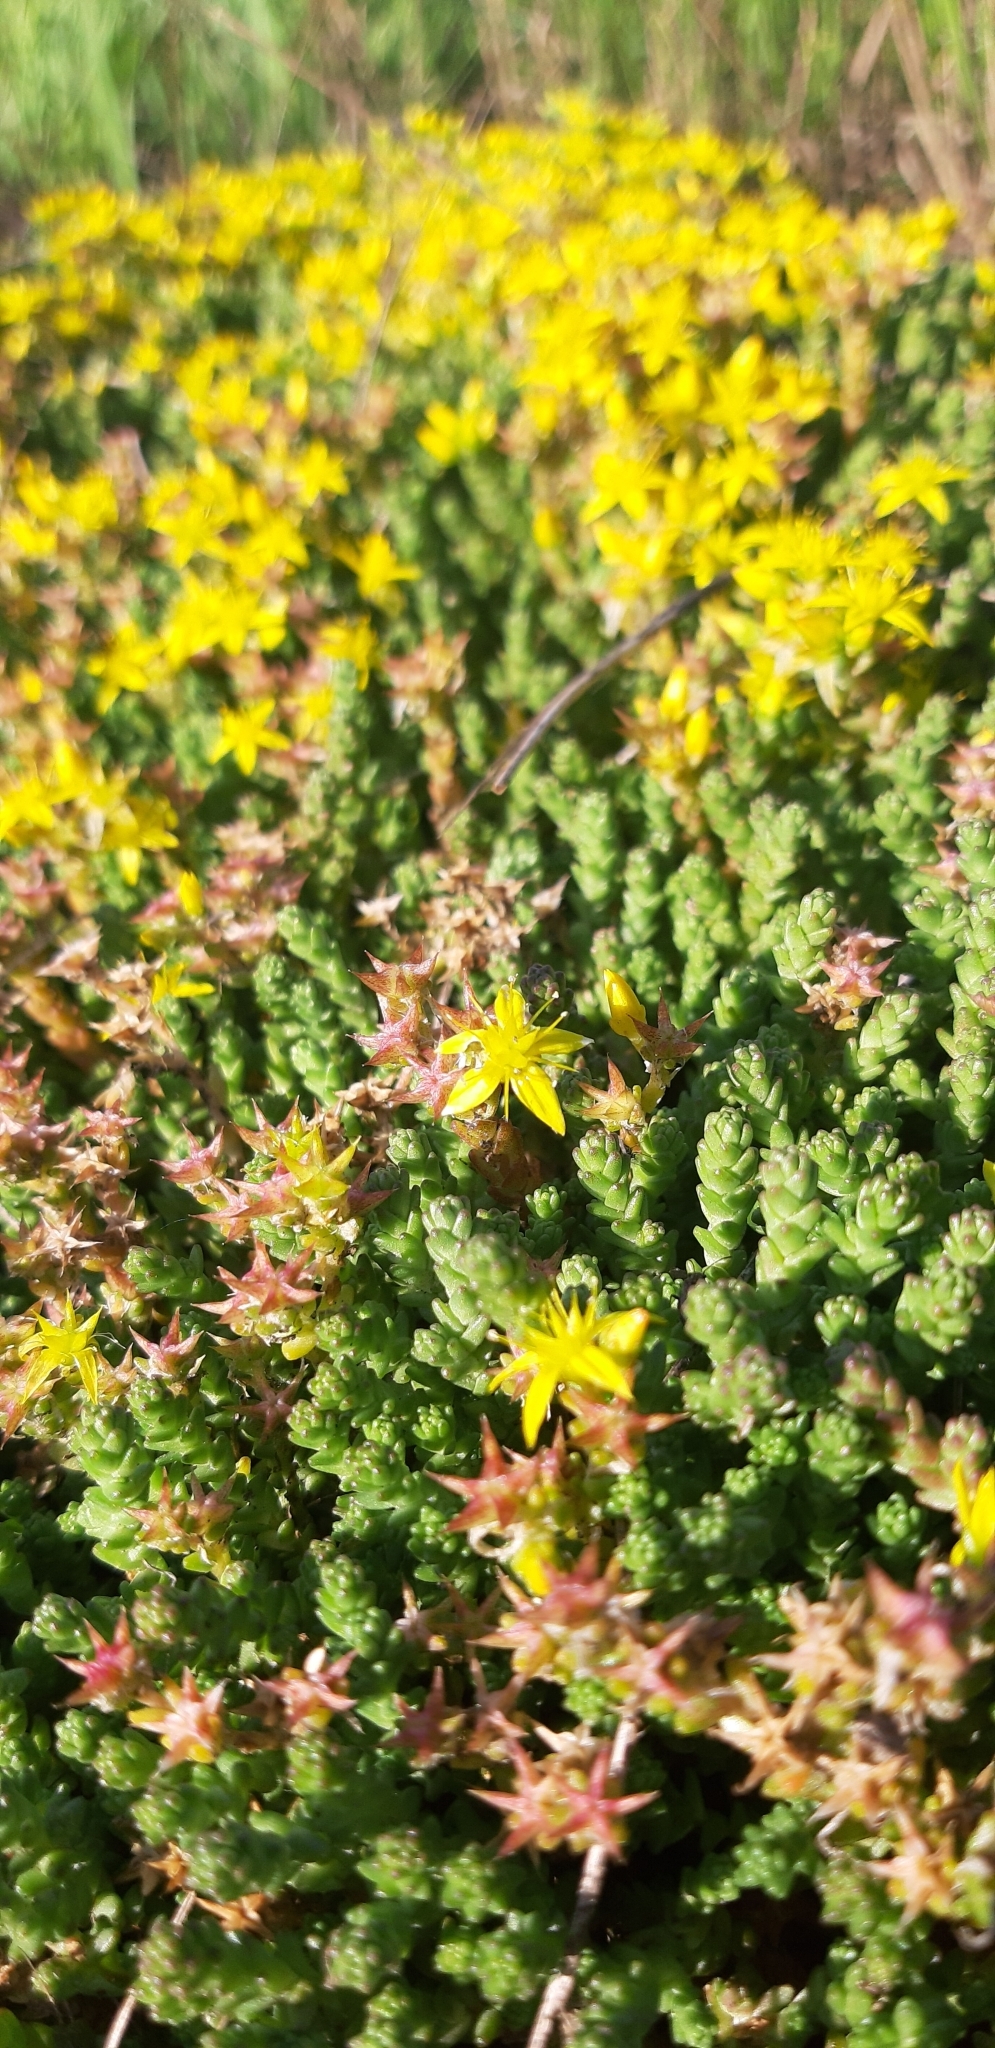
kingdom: Plantae
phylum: Tracheophyta
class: Magnoliopsida
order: Saxifragales
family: Crassulaceae
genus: Sedum
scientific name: Sedum acre
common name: Biting stonecrop
